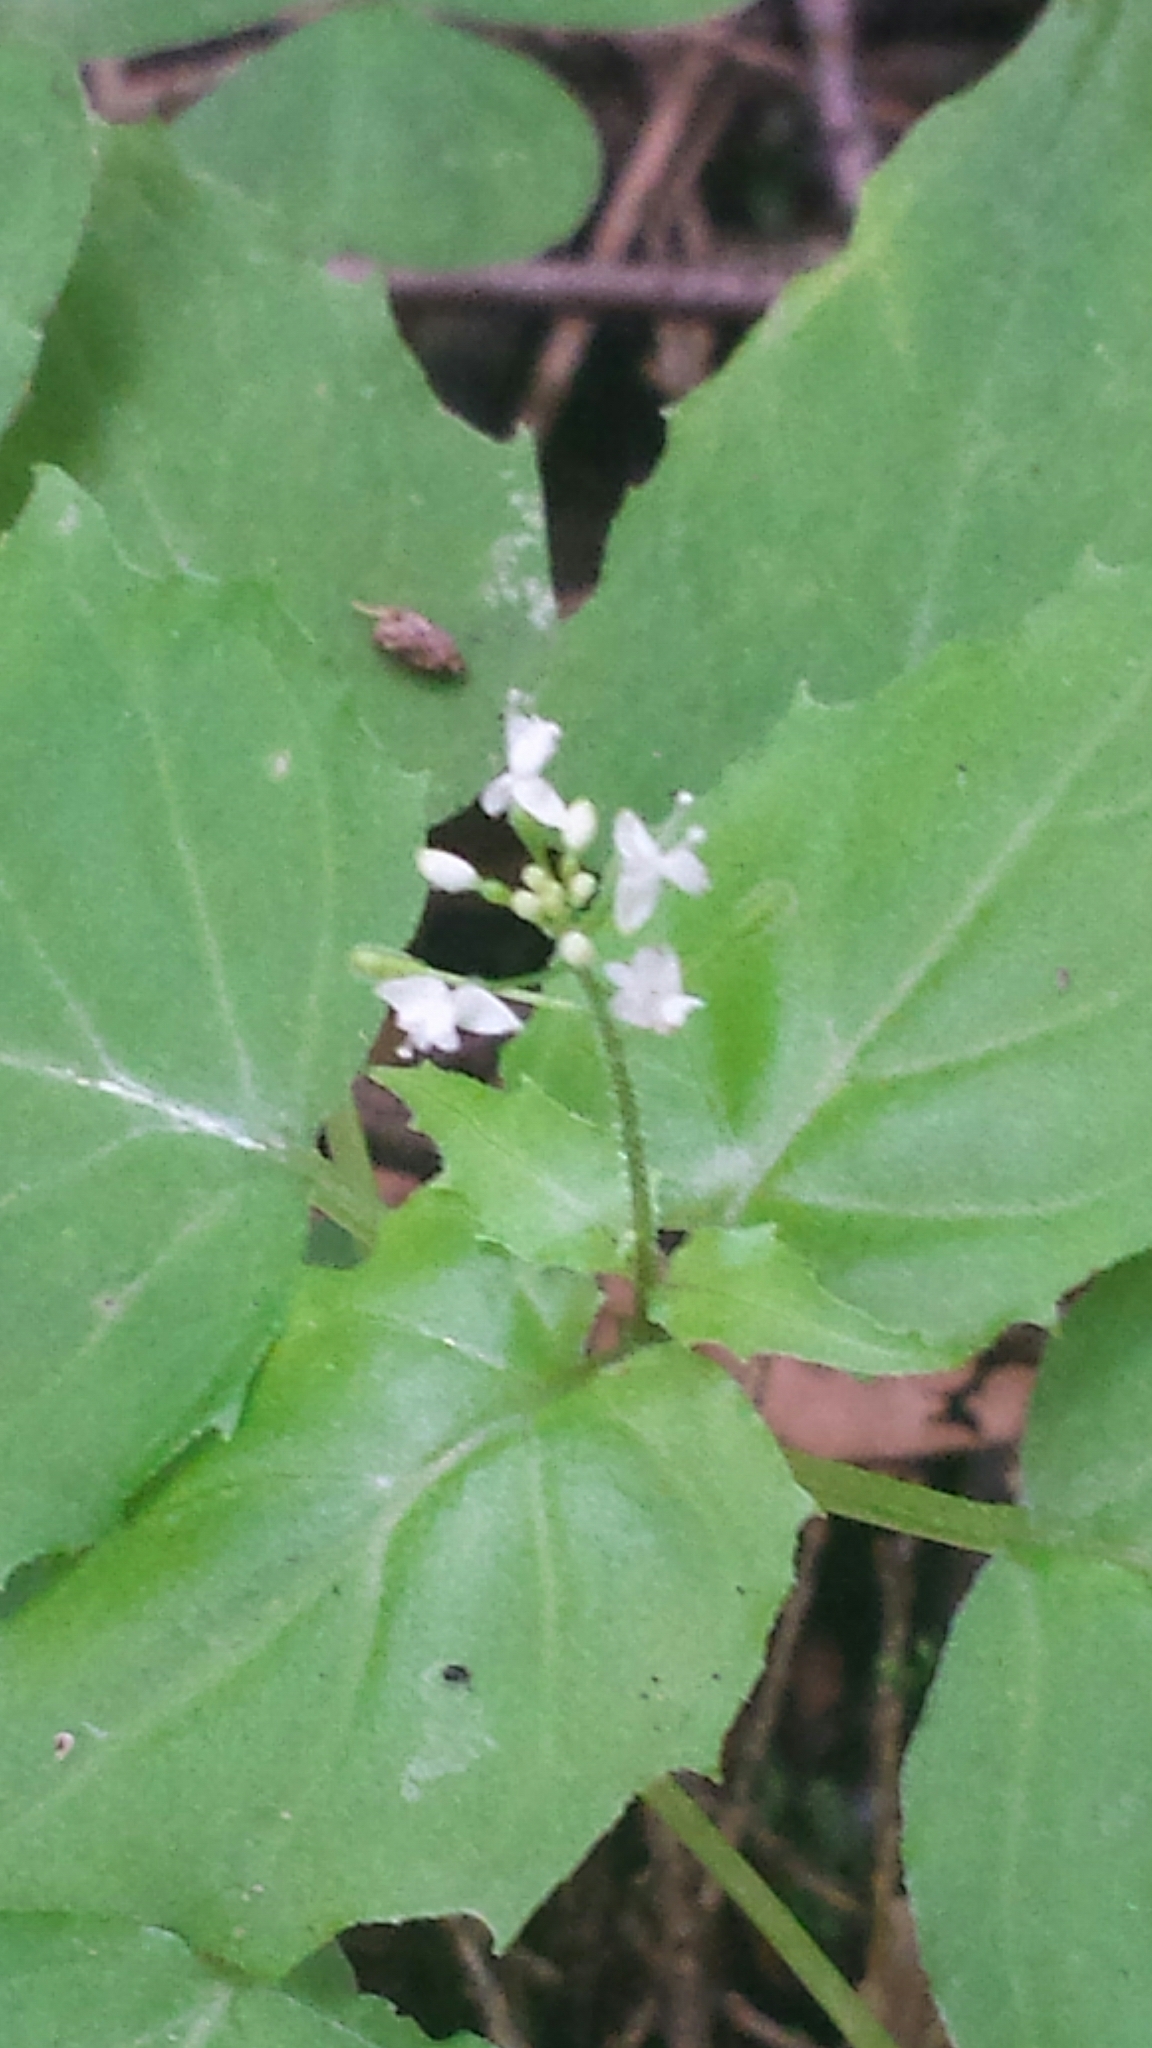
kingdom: Plantae
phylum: Tracheophyta
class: Magnoliopsida
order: Myrtales
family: Onagraceae
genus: Circaea
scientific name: Circaea alpina
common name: Alpine enchanter's-nightshade
